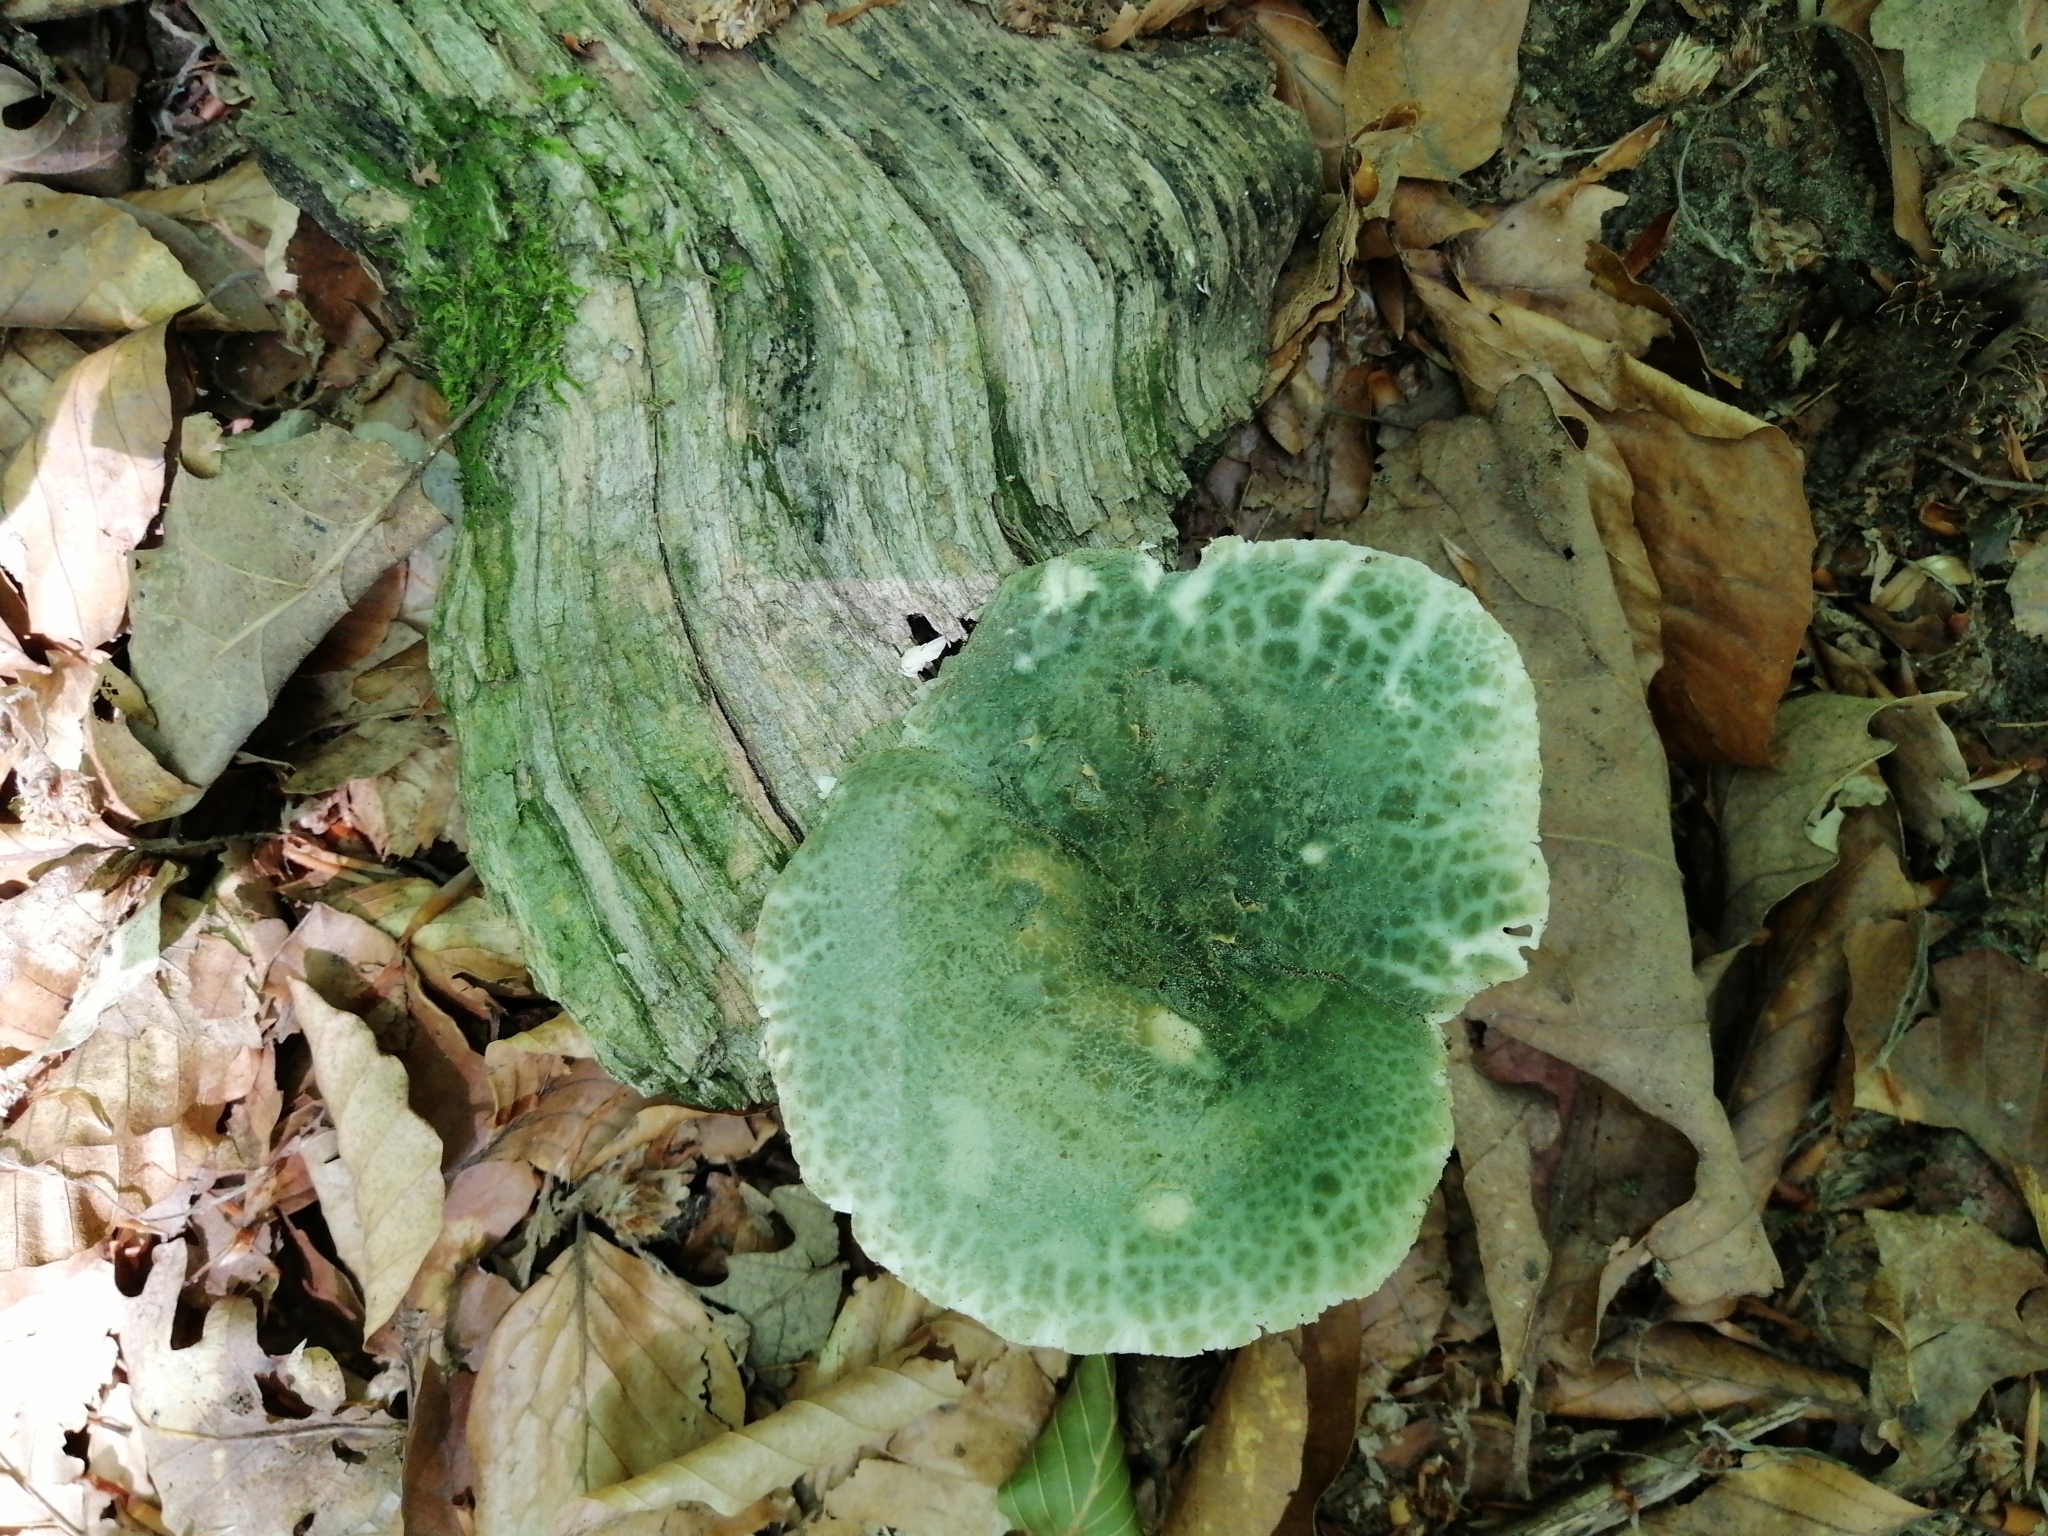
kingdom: Fungi
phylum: Basidiomycota
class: Agaricomycetes
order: Russulales
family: Russulaceae
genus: Russula
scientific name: Russula virescens
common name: Greencracked brittlegill
